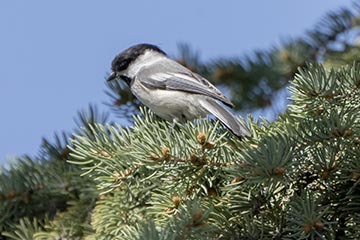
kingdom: Animalia
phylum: Chordata
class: Aves
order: Passeriformes
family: Paridae
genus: Poecile
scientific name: Poecile atricapillus
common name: Black-capped chickadee
